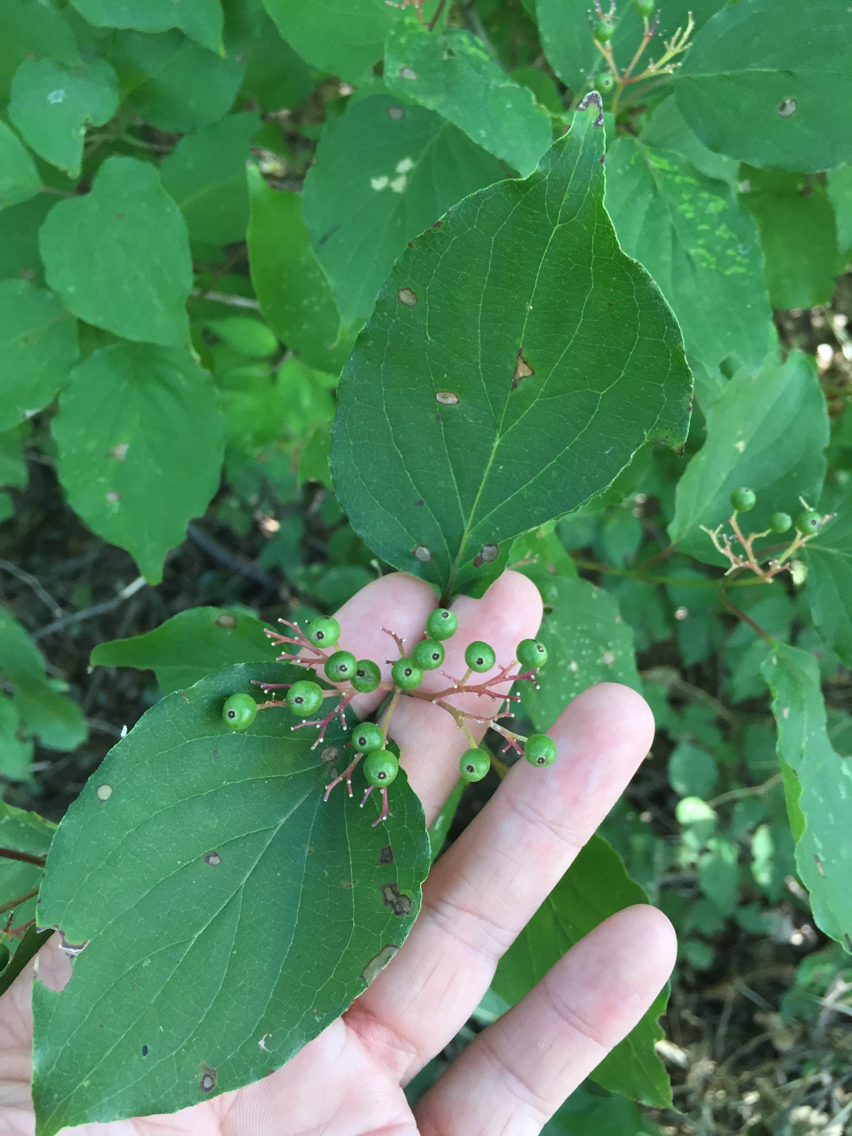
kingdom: Plantae
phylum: Tracheophyta
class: Magnoliopsida
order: Cornales
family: Cornaceae
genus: Cornus
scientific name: Cornus drummondii
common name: Rough-leaf dogwood
